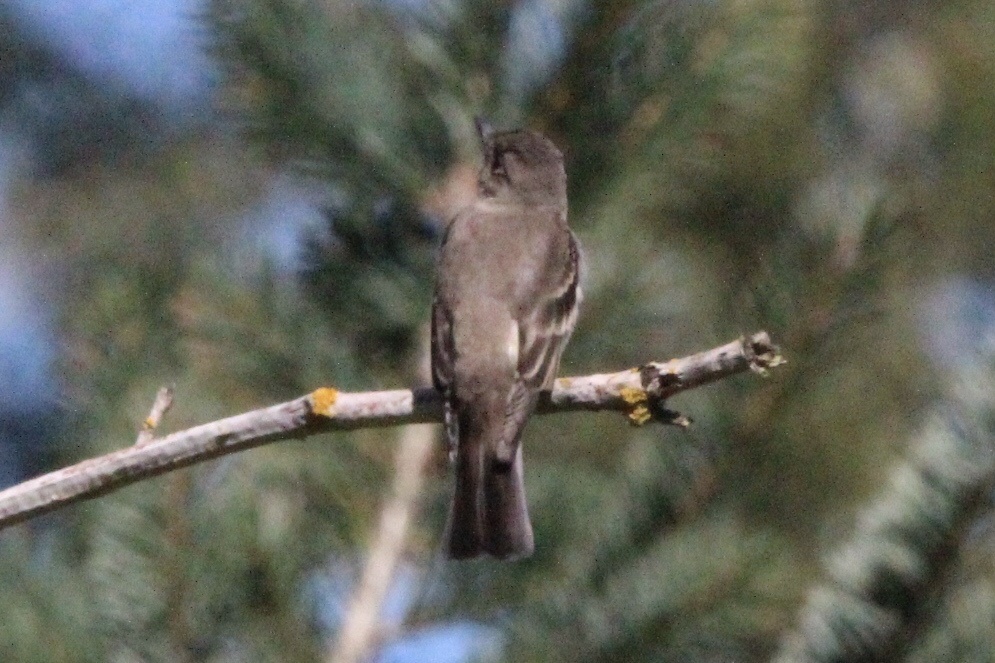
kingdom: Animalia
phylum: Chordata
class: Aves
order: Passeriformes
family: Tyrannidae
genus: Contopus
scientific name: Contopus sordidulus
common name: Western wood-pewee
